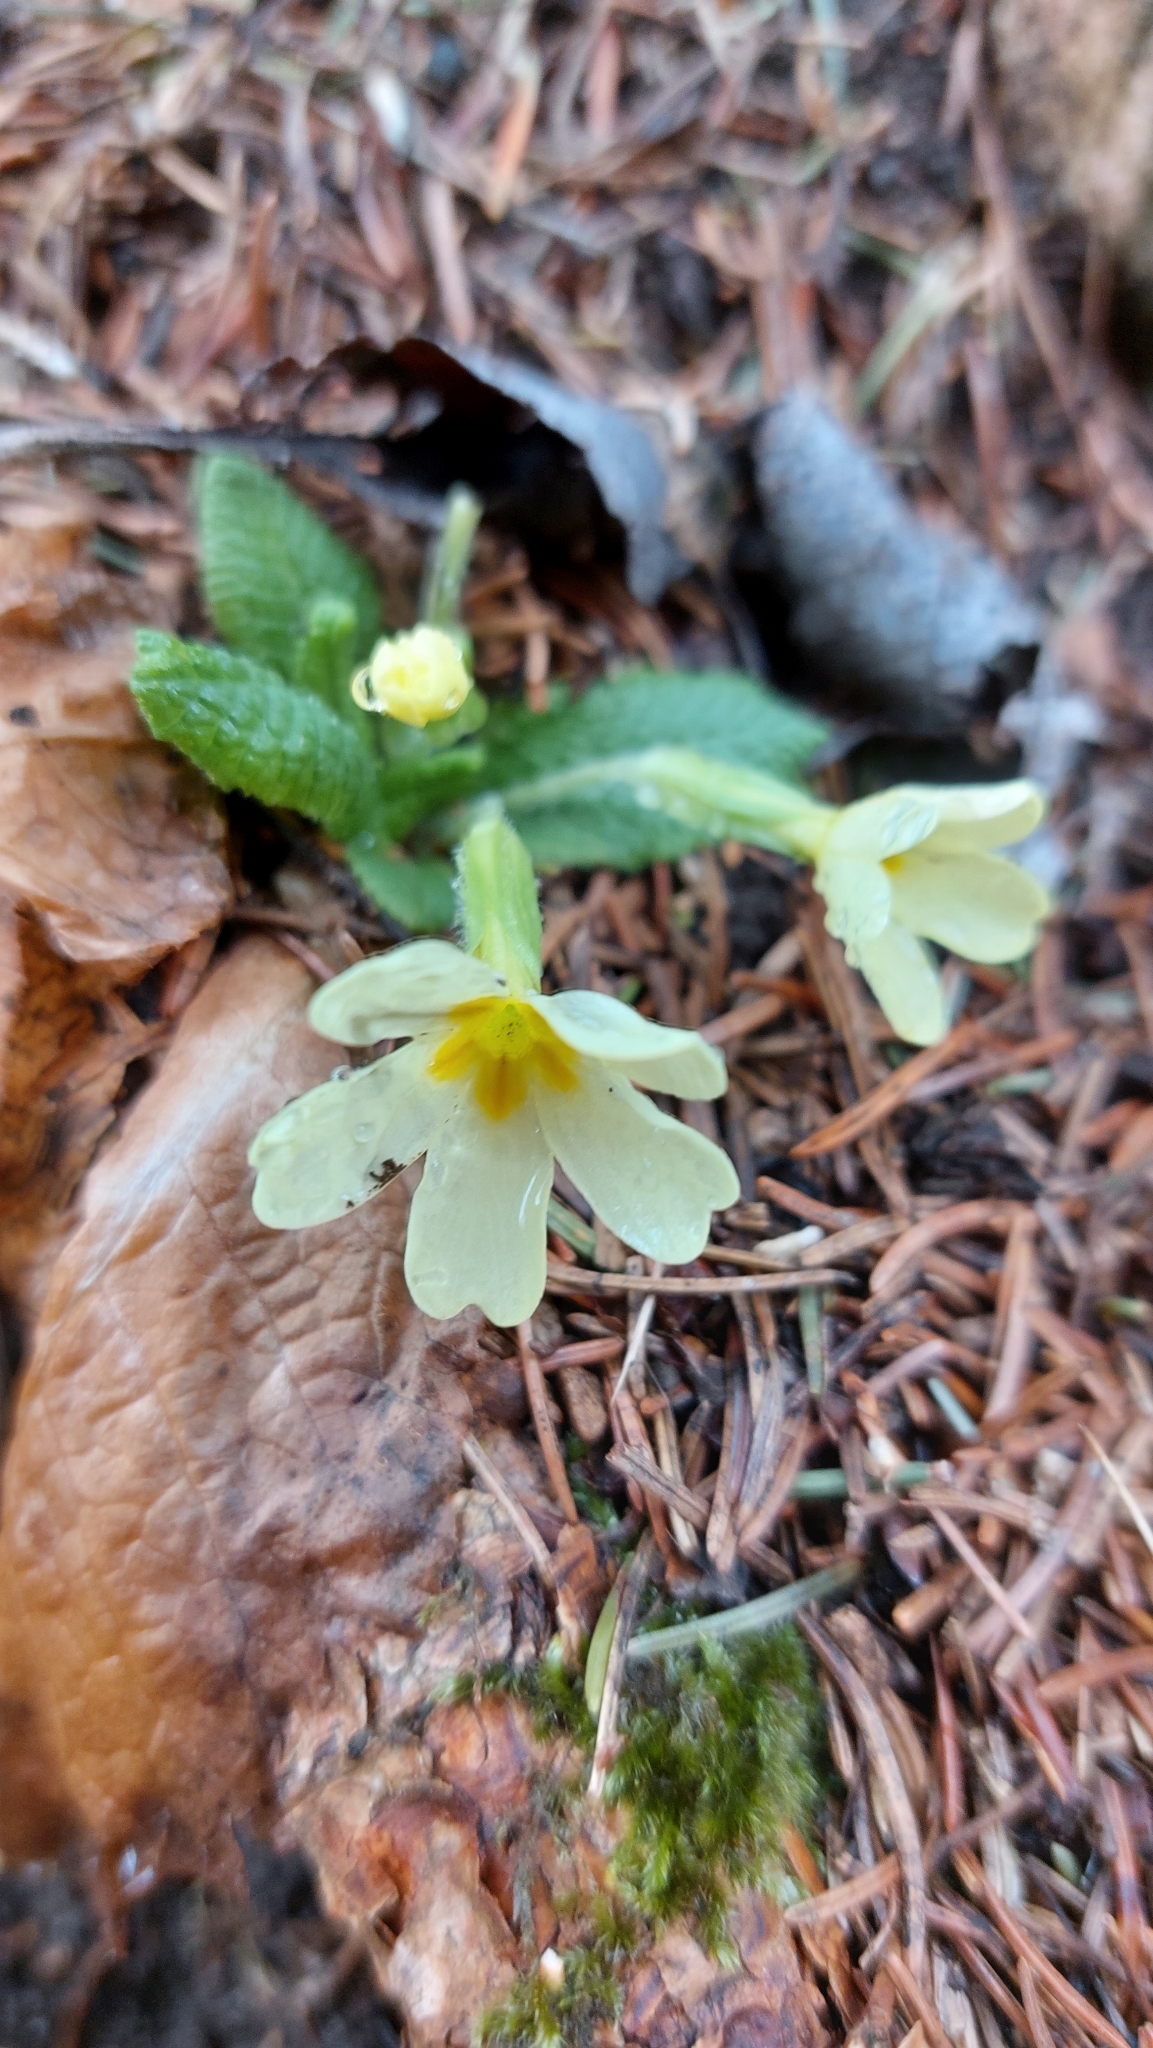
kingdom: Plantae
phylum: Tracheophyta
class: Magnoliopsida
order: Ericales
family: Primulaceae
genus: Primula
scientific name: Primula vulgaris
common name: Primrose
